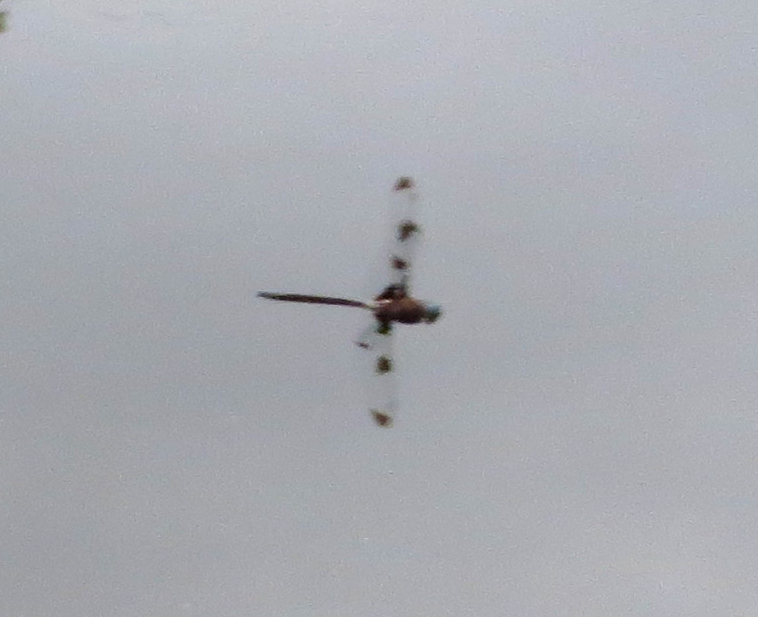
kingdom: Animalia
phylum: Arthropoda
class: Insecta
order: Odonata
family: Corduliidae
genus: Epitheca
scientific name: Epitheca princeps
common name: Prince baskettail
